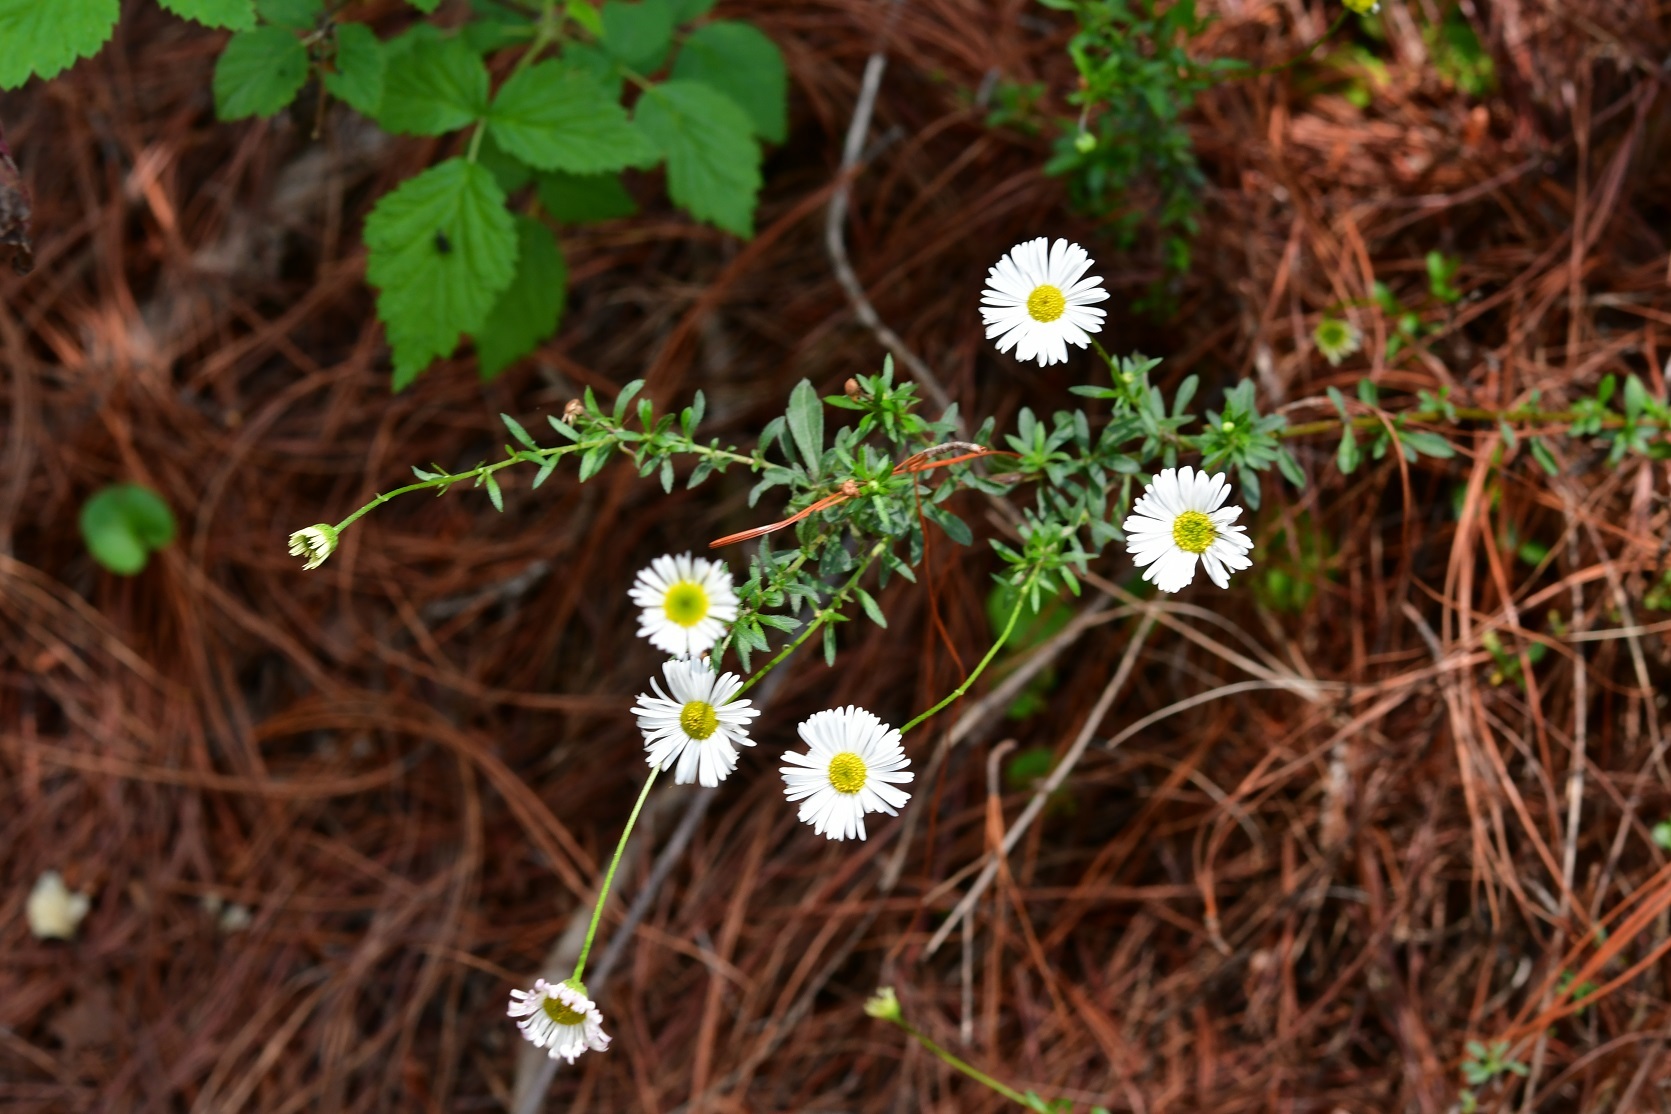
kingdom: Plantae
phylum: Tracheophyta
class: Magnoliopsida
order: Asterales
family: Asteraceae
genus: Erigeron
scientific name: Erigeron karvinskianus
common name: Mexican fleabane
